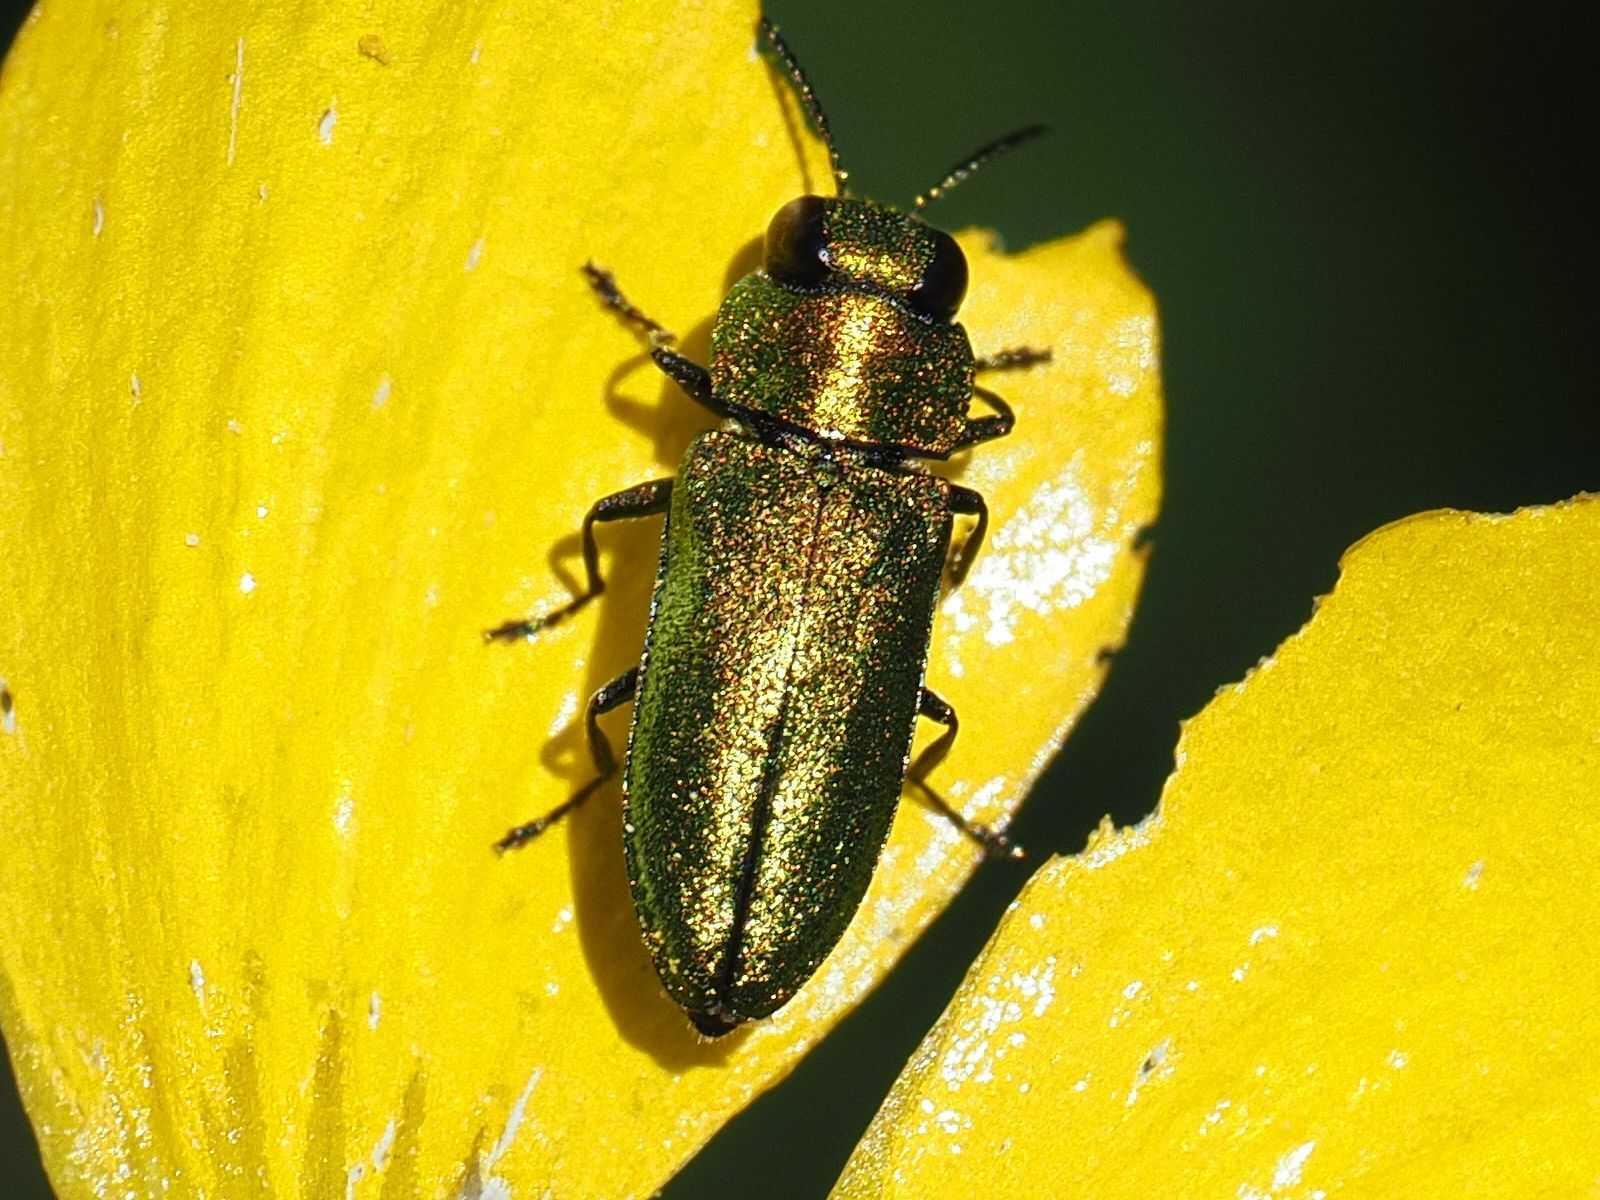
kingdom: Animalia
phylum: Arthropoda
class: Insecta
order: Coleoptera
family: Buprestidae
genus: Anthaxia
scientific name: Anthaxia nitidula
